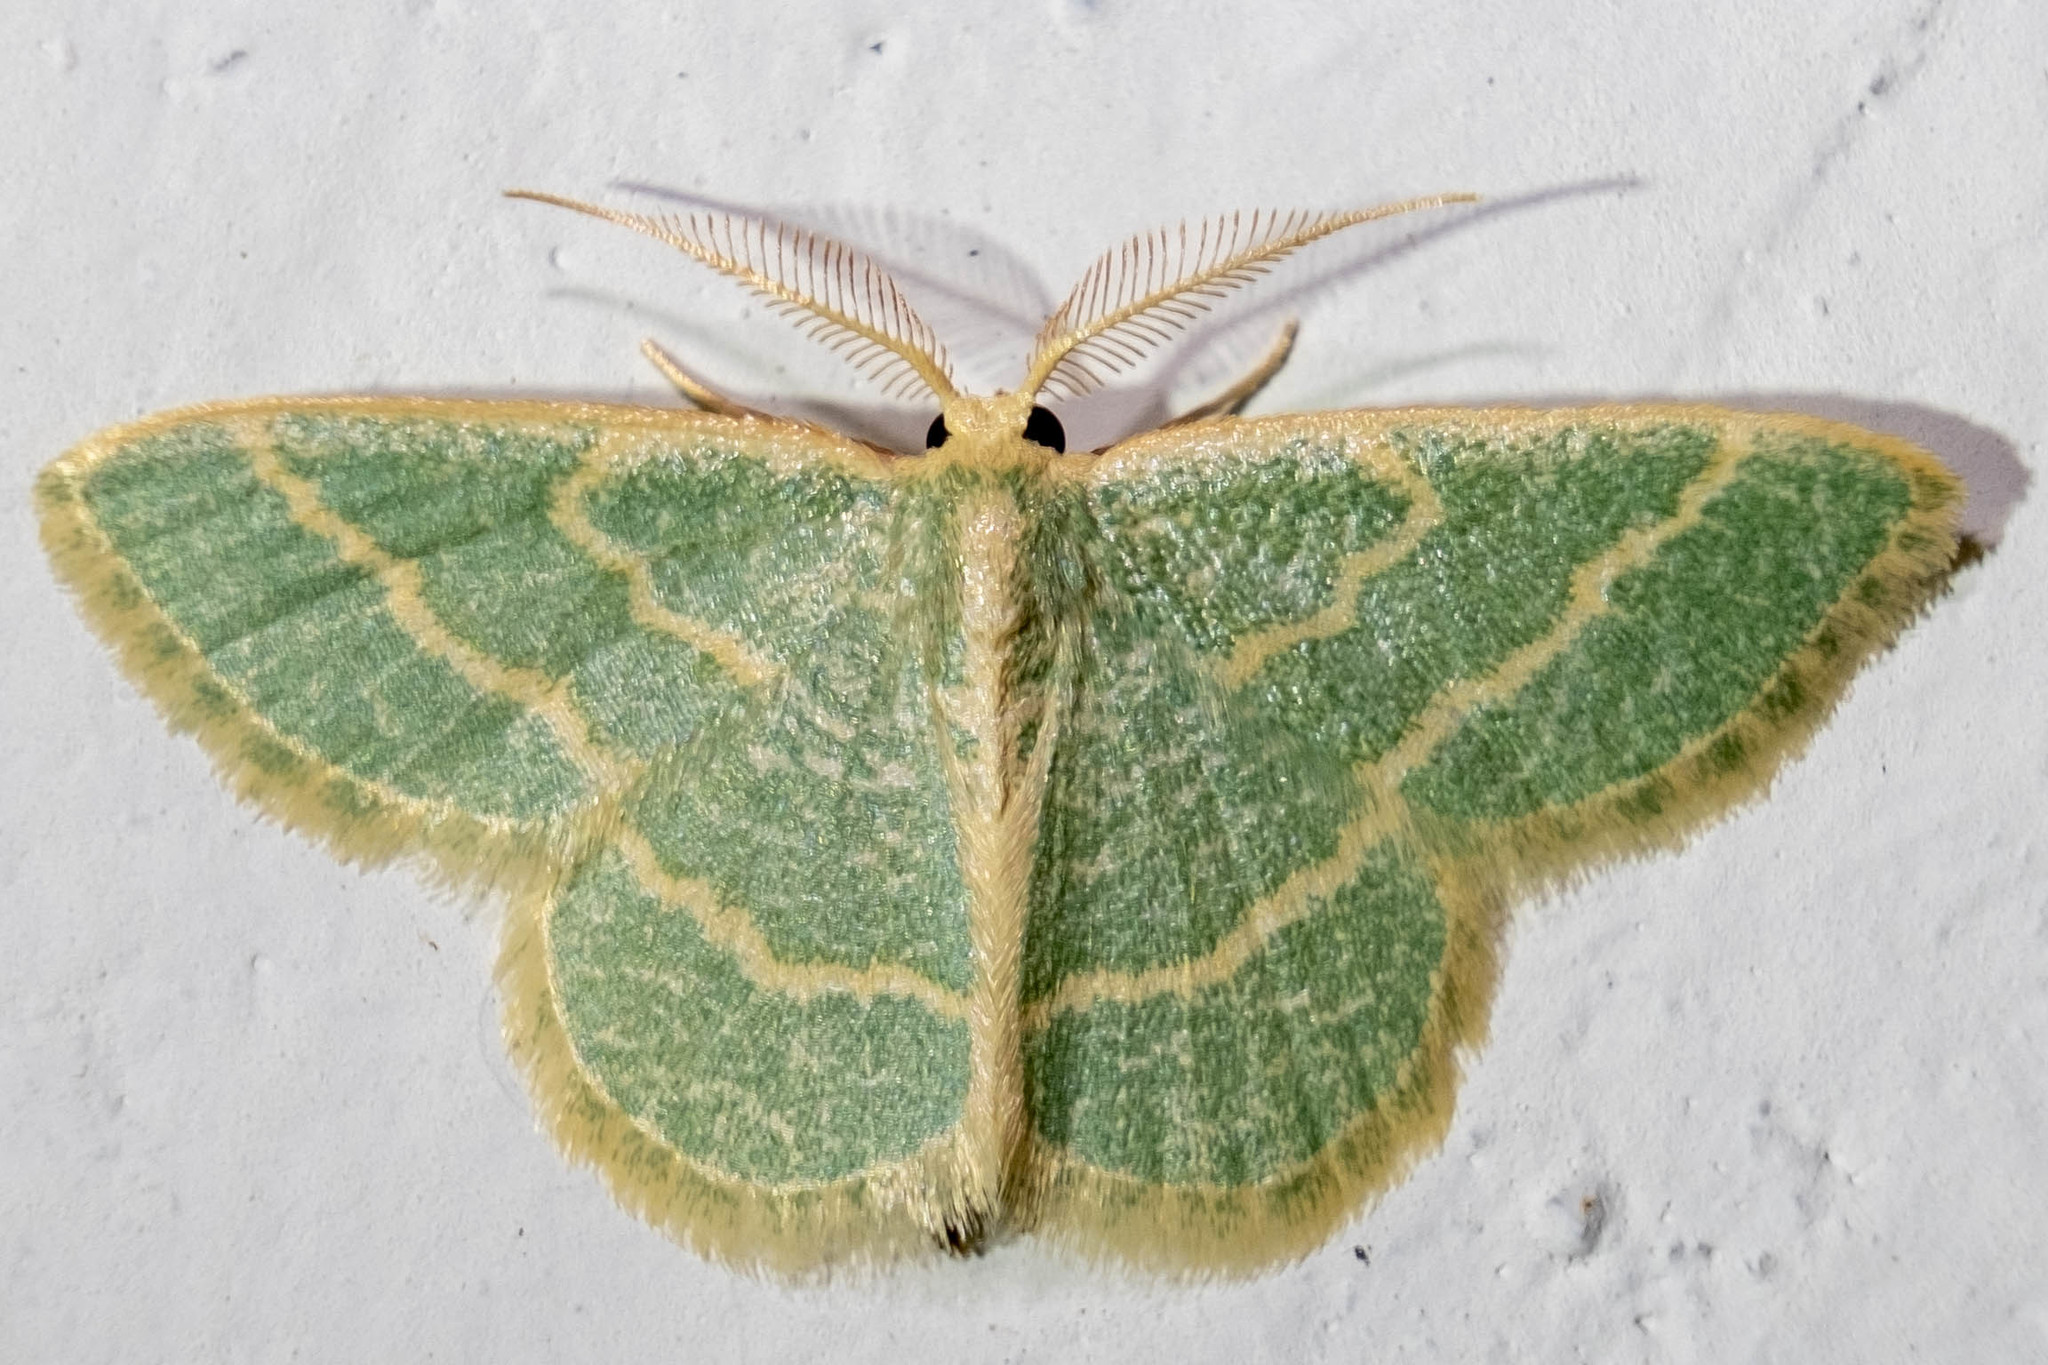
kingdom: Animalia
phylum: Arthropoda
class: Insecta
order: Lepidoptera
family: Geometridae
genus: Chlorochlamys
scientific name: Chlorochlamys chloroleucaria
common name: Blackberry looper
